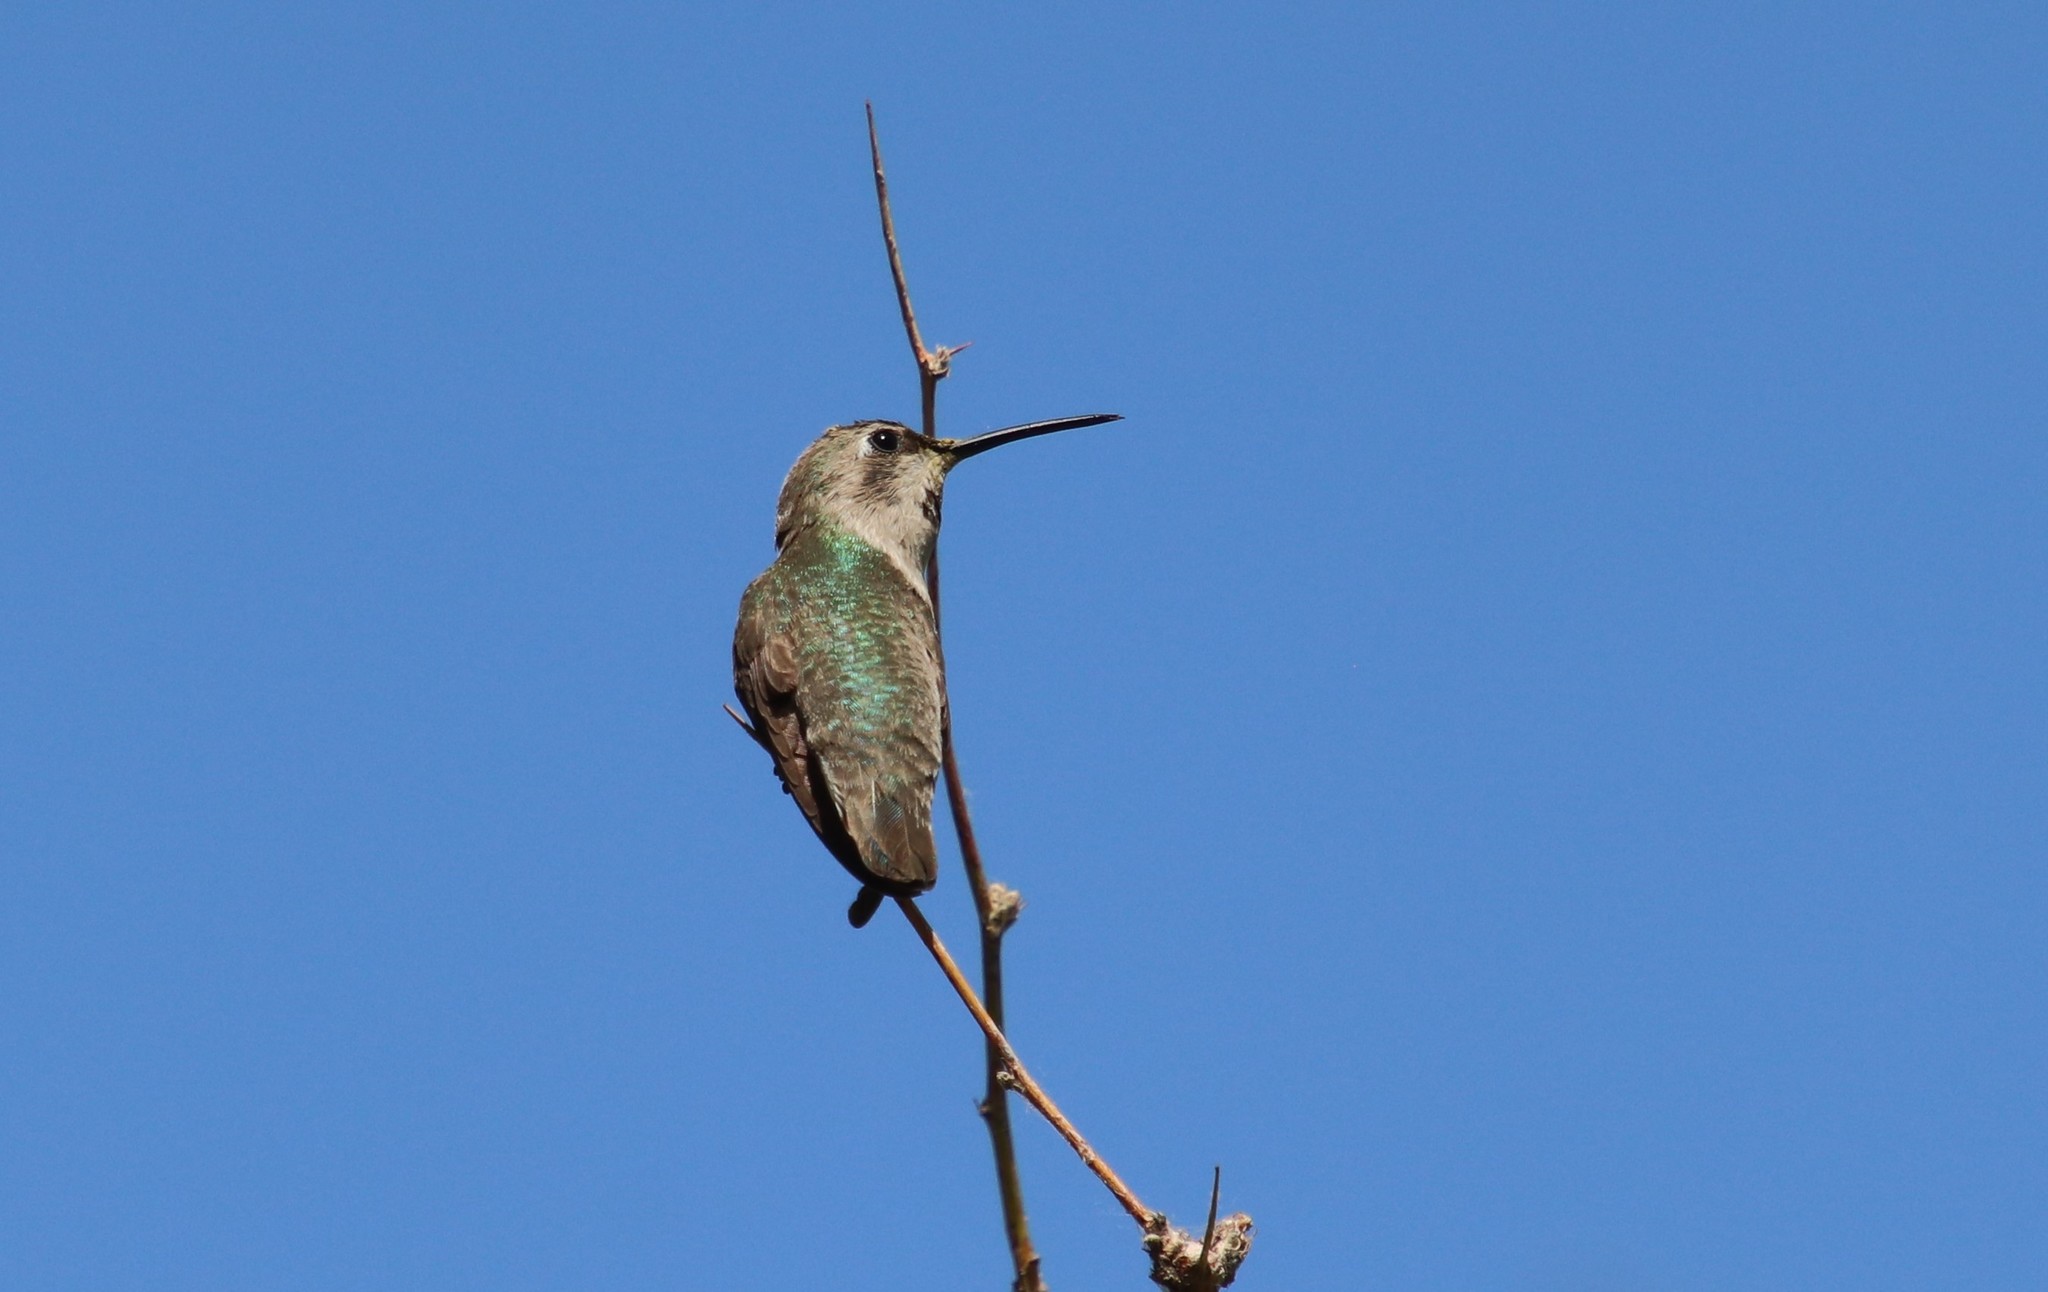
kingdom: Animalia
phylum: Chordata
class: Aves
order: Apodiformes
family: Trochilidae
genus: Calypte
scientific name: Calypte costae
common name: Costa's hummingbird
